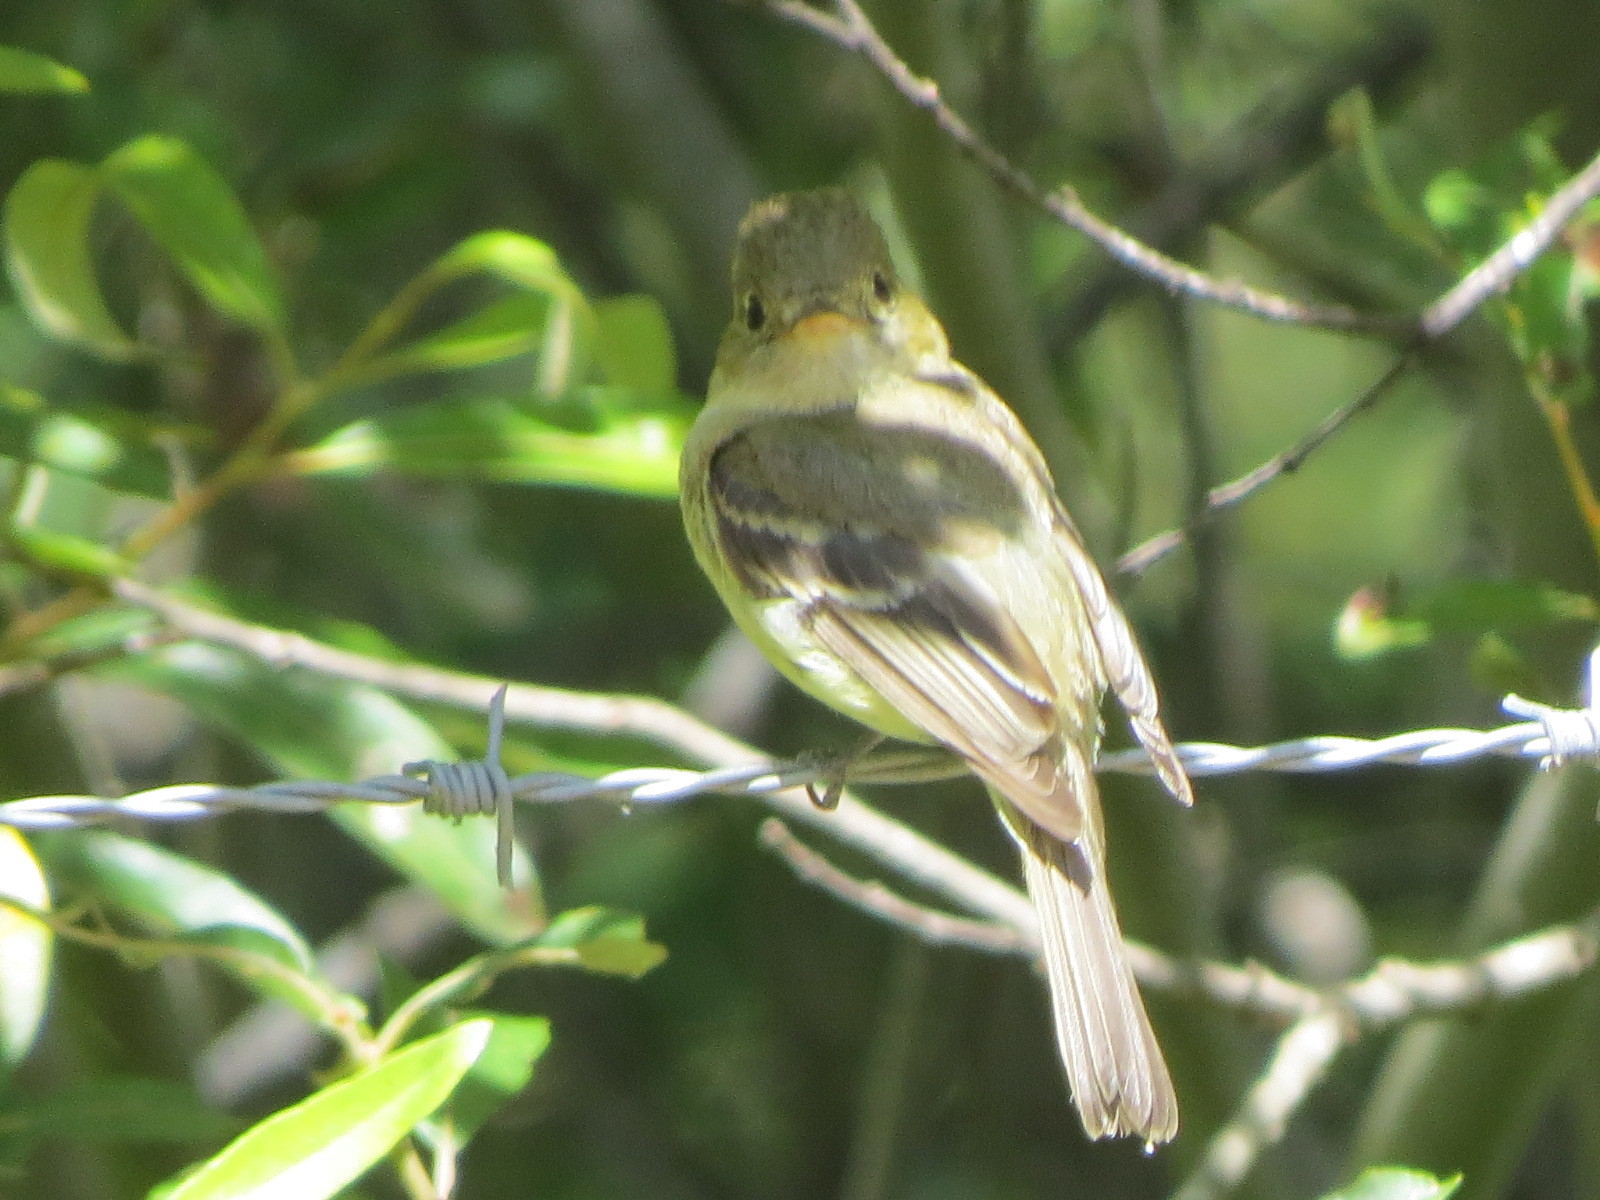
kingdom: Animalia
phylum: Chordata
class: Aves
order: Passeriformes
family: Tyrannidae
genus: Empidonax
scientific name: Empidonax difficilis
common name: Pacific-slope flycatcher
